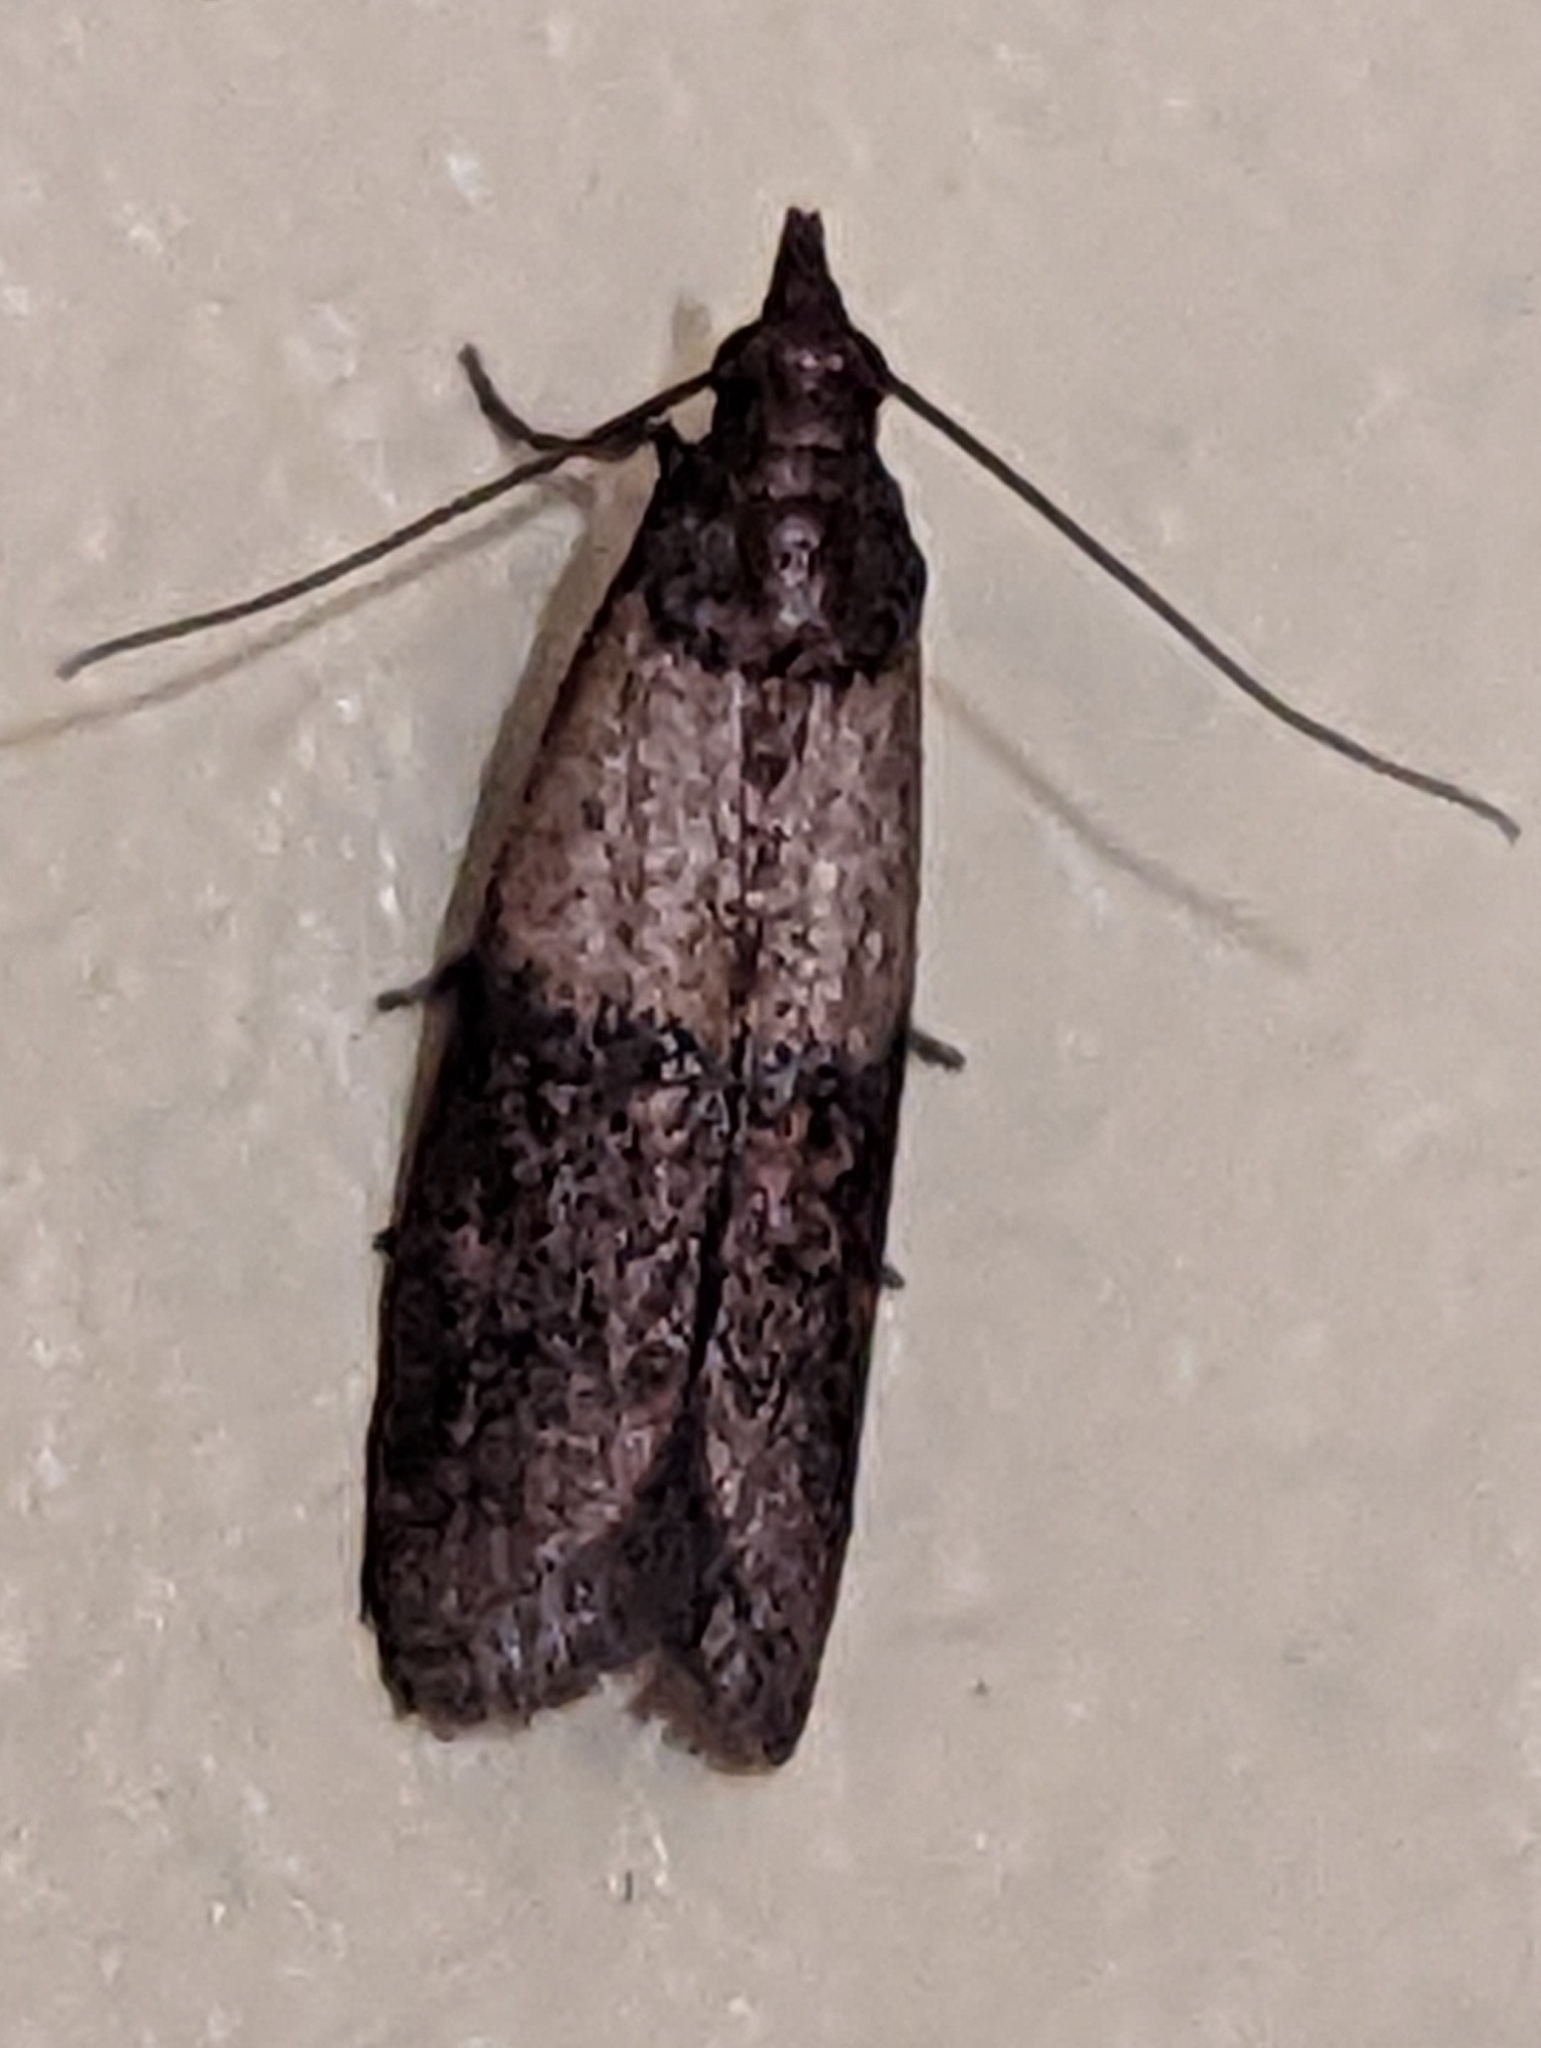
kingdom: Animalia
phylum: Arthropoda
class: Insecta
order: Lepidoptera
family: Pyralidae
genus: Plodia
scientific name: Plodia interpunctella
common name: Indian meal moth
